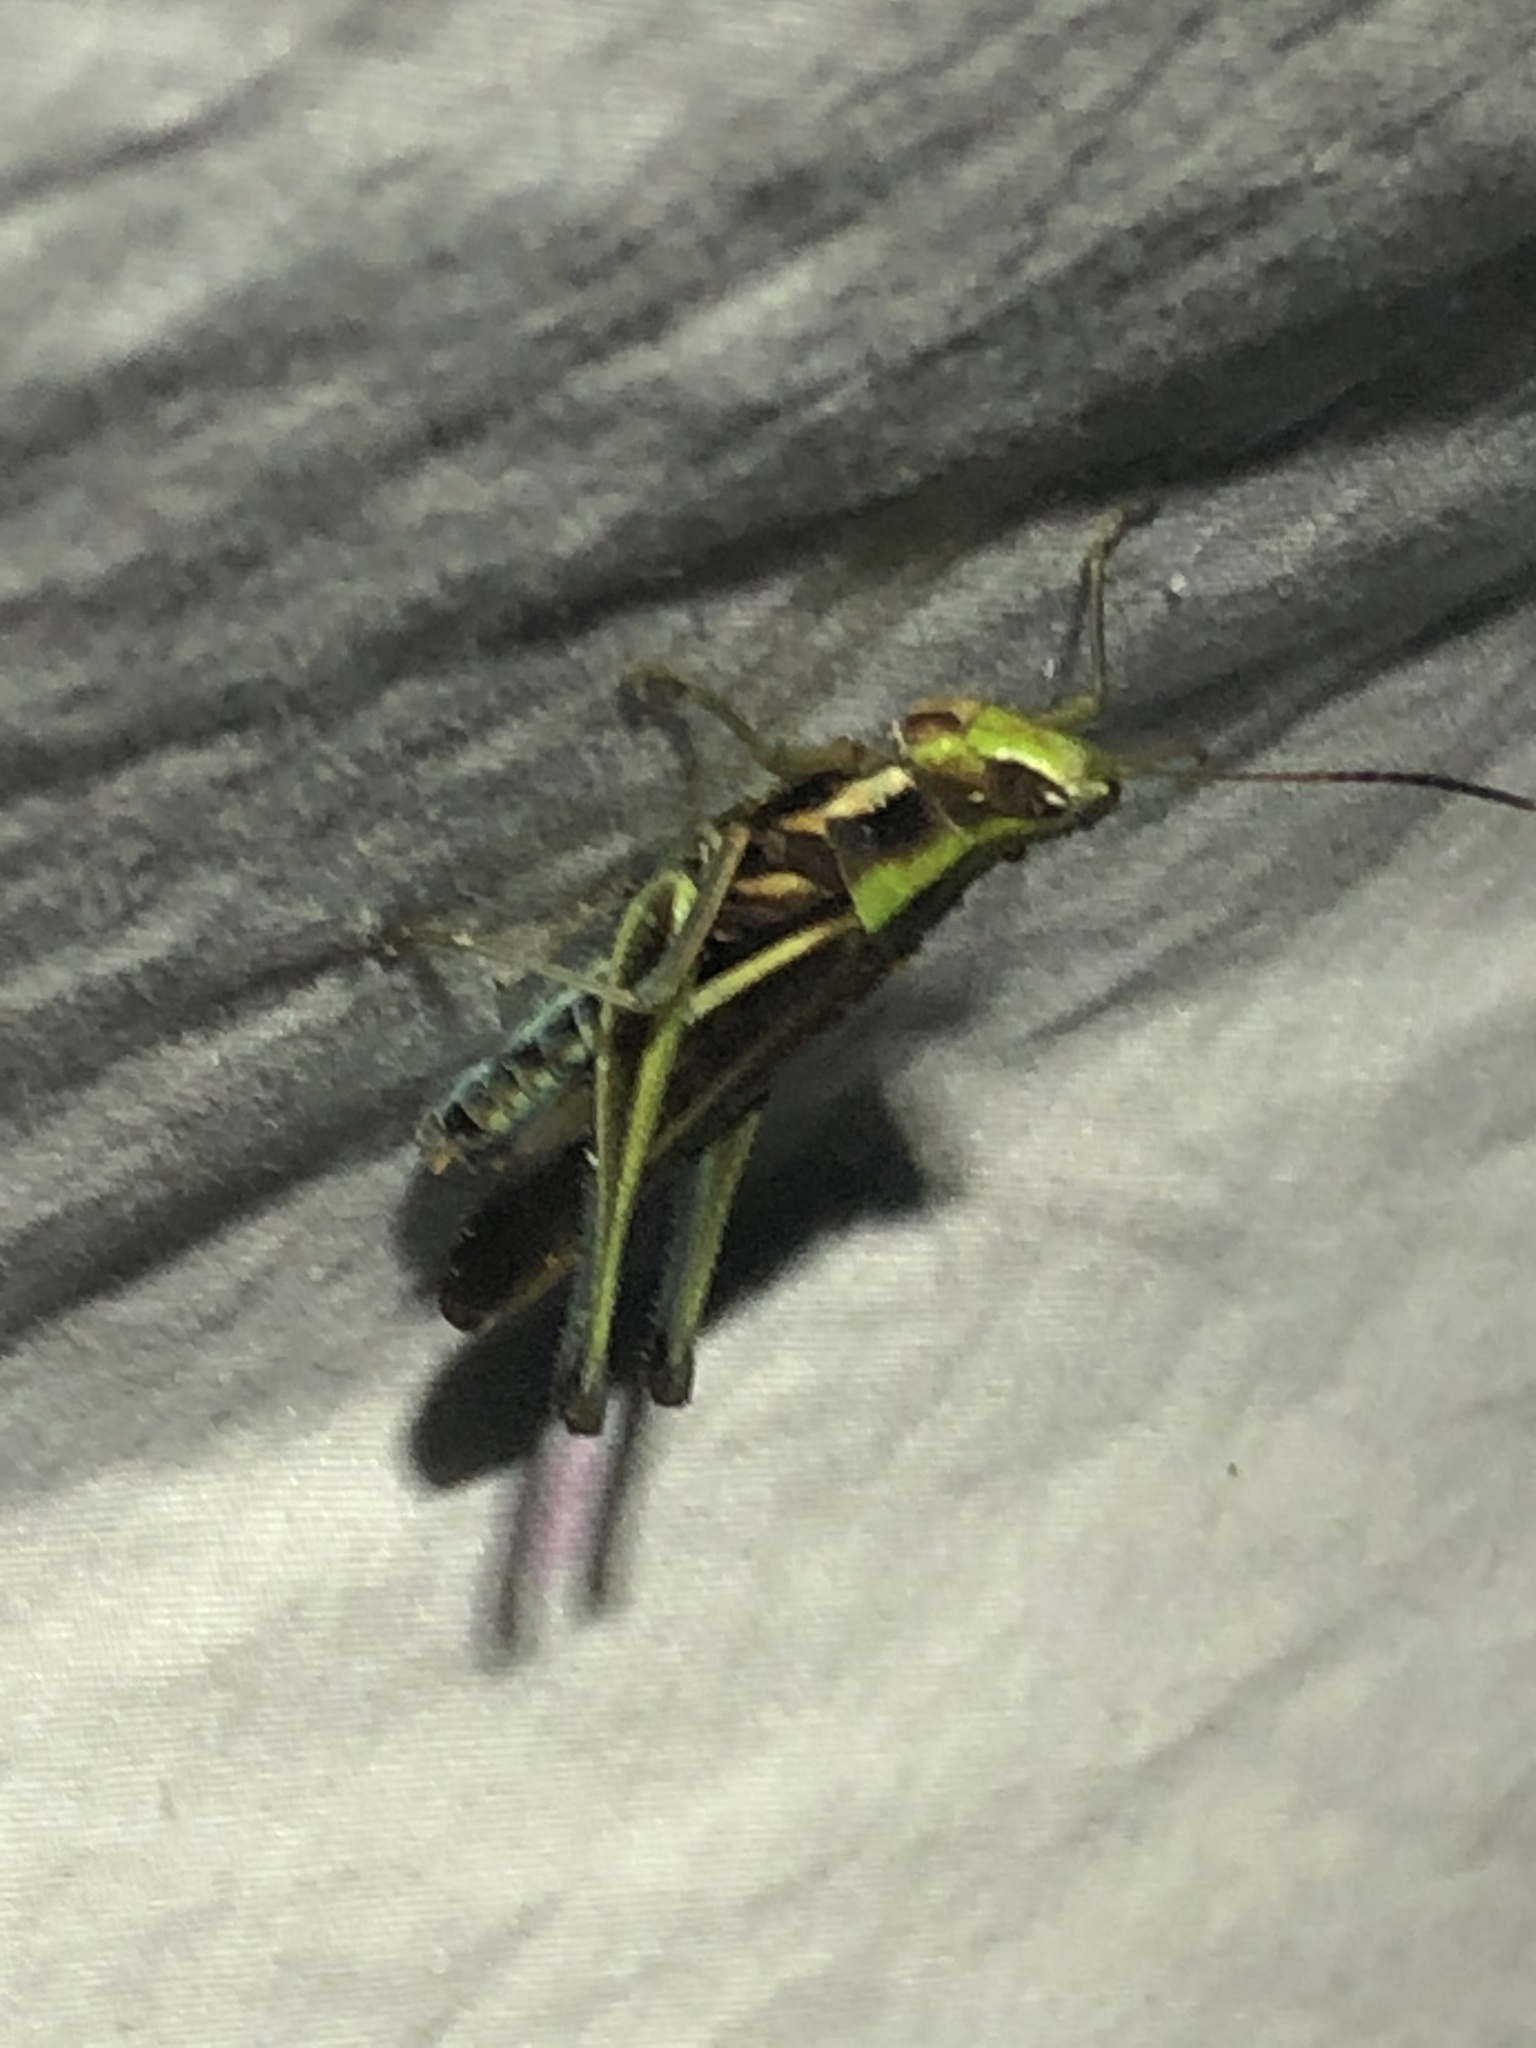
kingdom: Animalia
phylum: Arthropoda
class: Insecta
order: Orthoptera
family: Acrididae
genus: Syrbula
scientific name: Syrbula montezuma
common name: Montezuma's grasshopper
